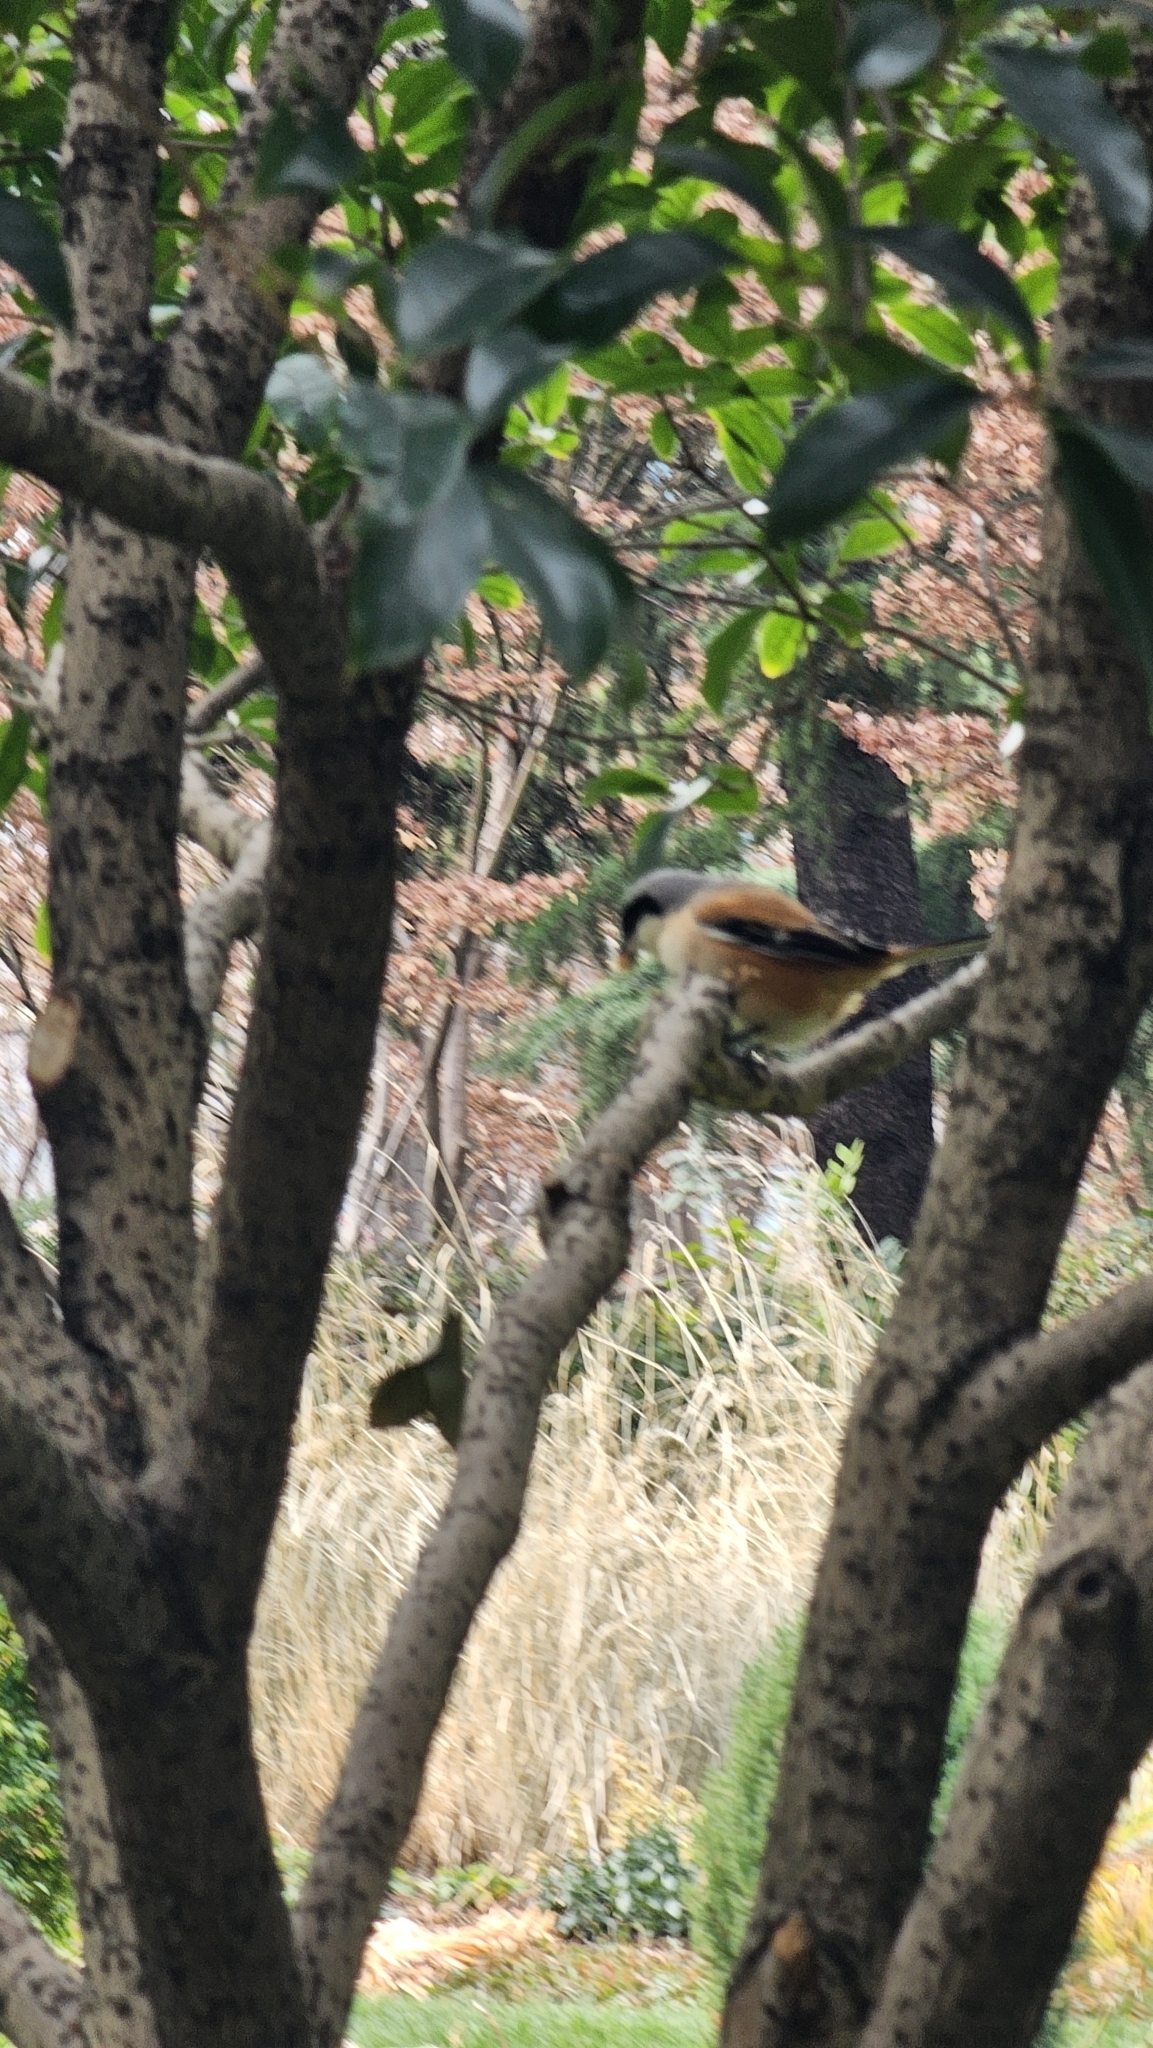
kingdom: Animalia
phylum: Chordata
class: Aves
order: Passeriformes
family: Laniidae
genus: Lanius
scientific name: Lanius schach
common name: Long-tailed shrike
